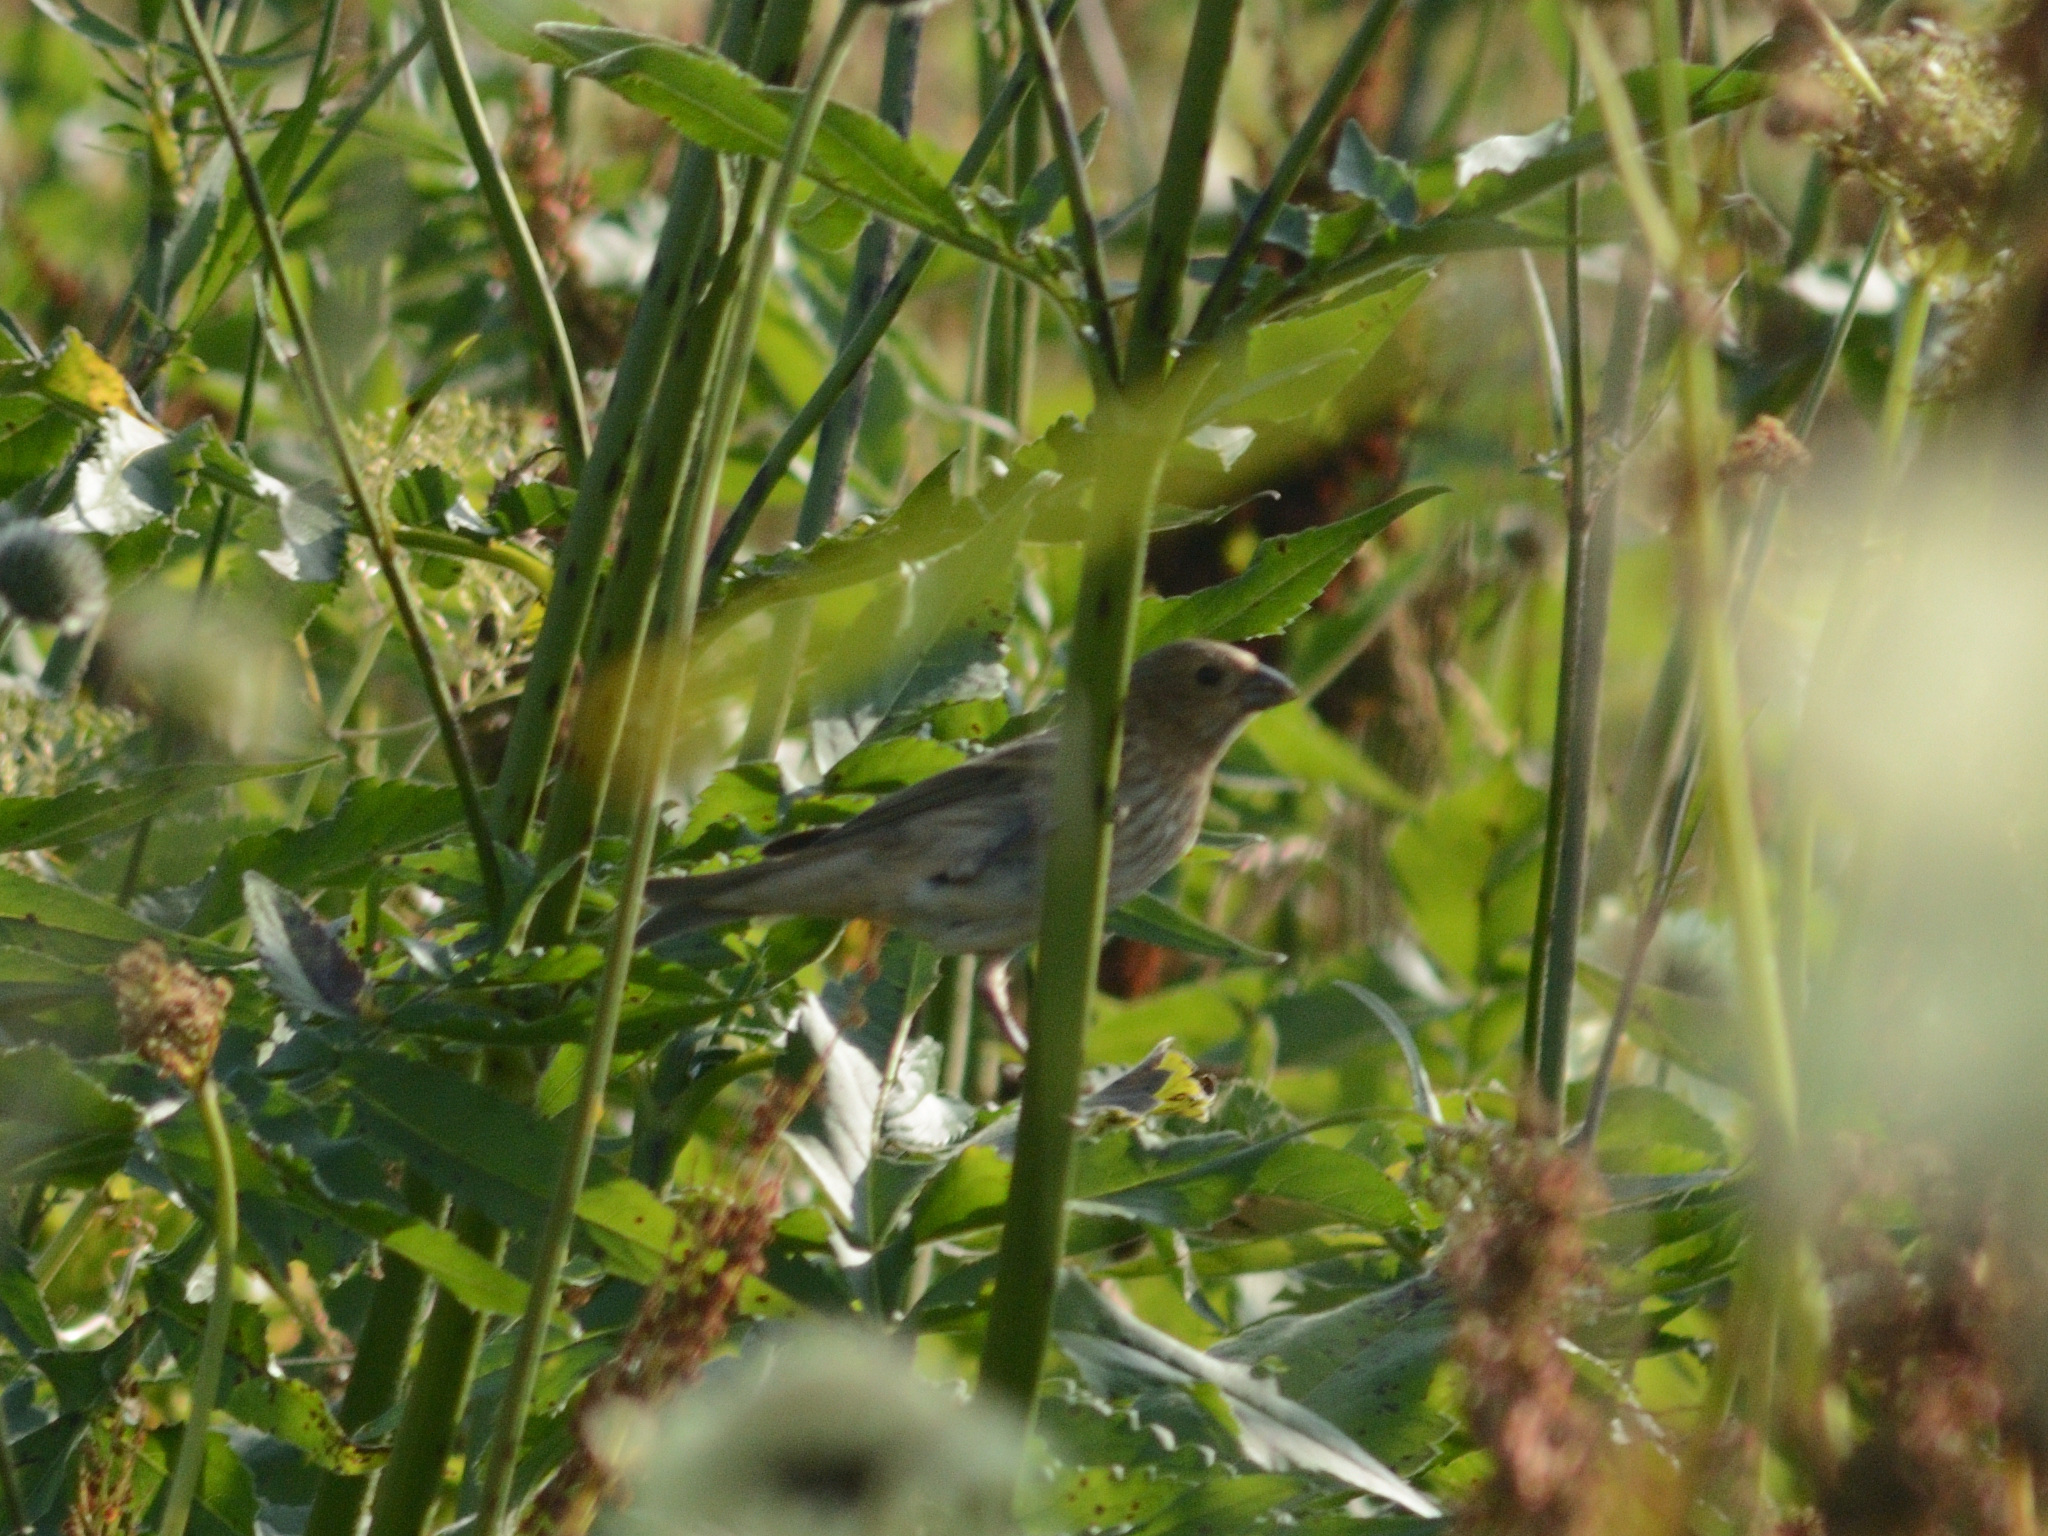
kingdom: Animalia
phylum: Chordata
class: Aves
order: Passeriformes
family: Fringillidae
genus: Carpodacus
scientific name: Carpodacus erythrinus
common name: Common rosefinch
